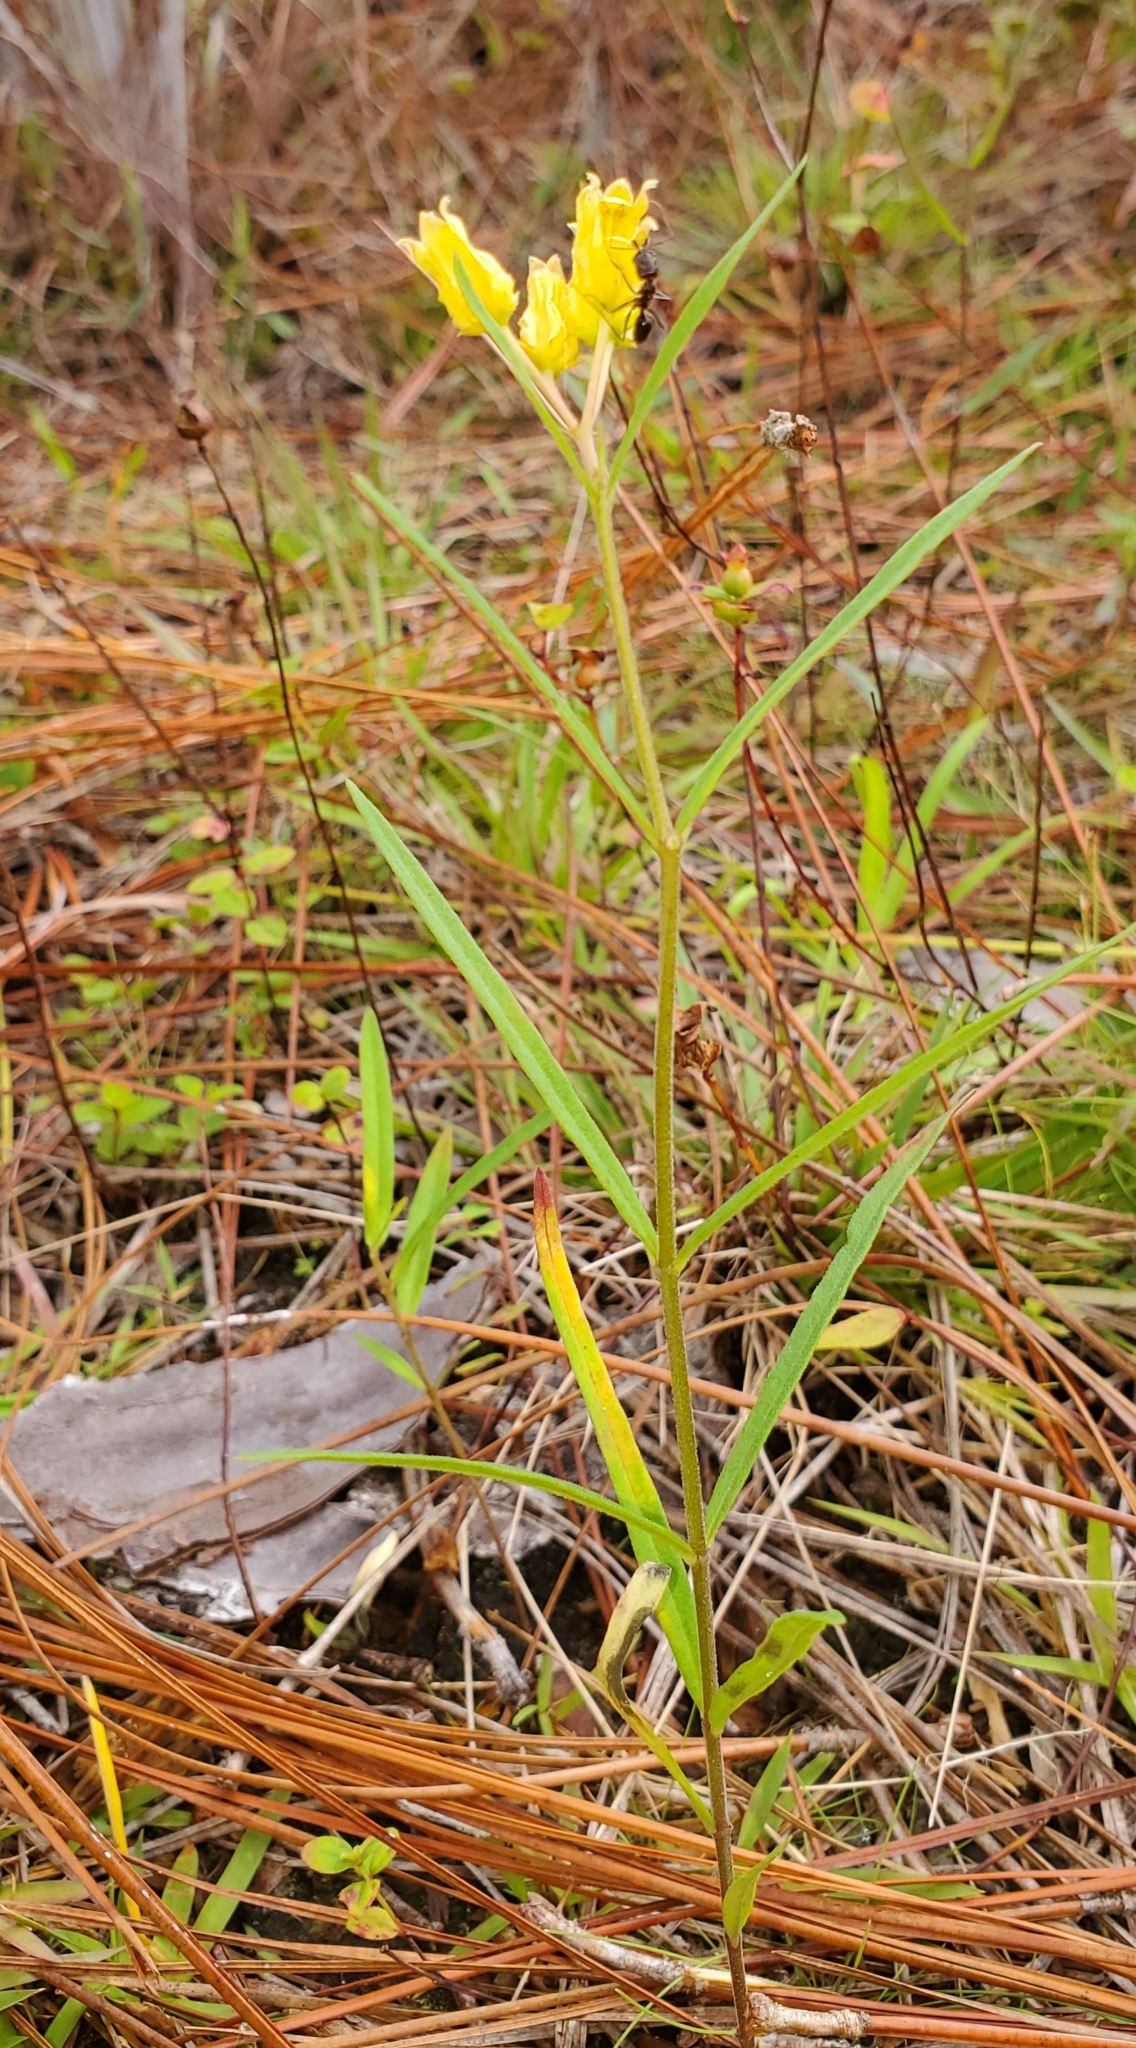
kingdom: Plantae
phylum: Tracheophyta
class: Magnoliopsida
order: Gentianales
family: Apocynaceae
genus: Asclepias
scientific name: Asclepias pedicellata
